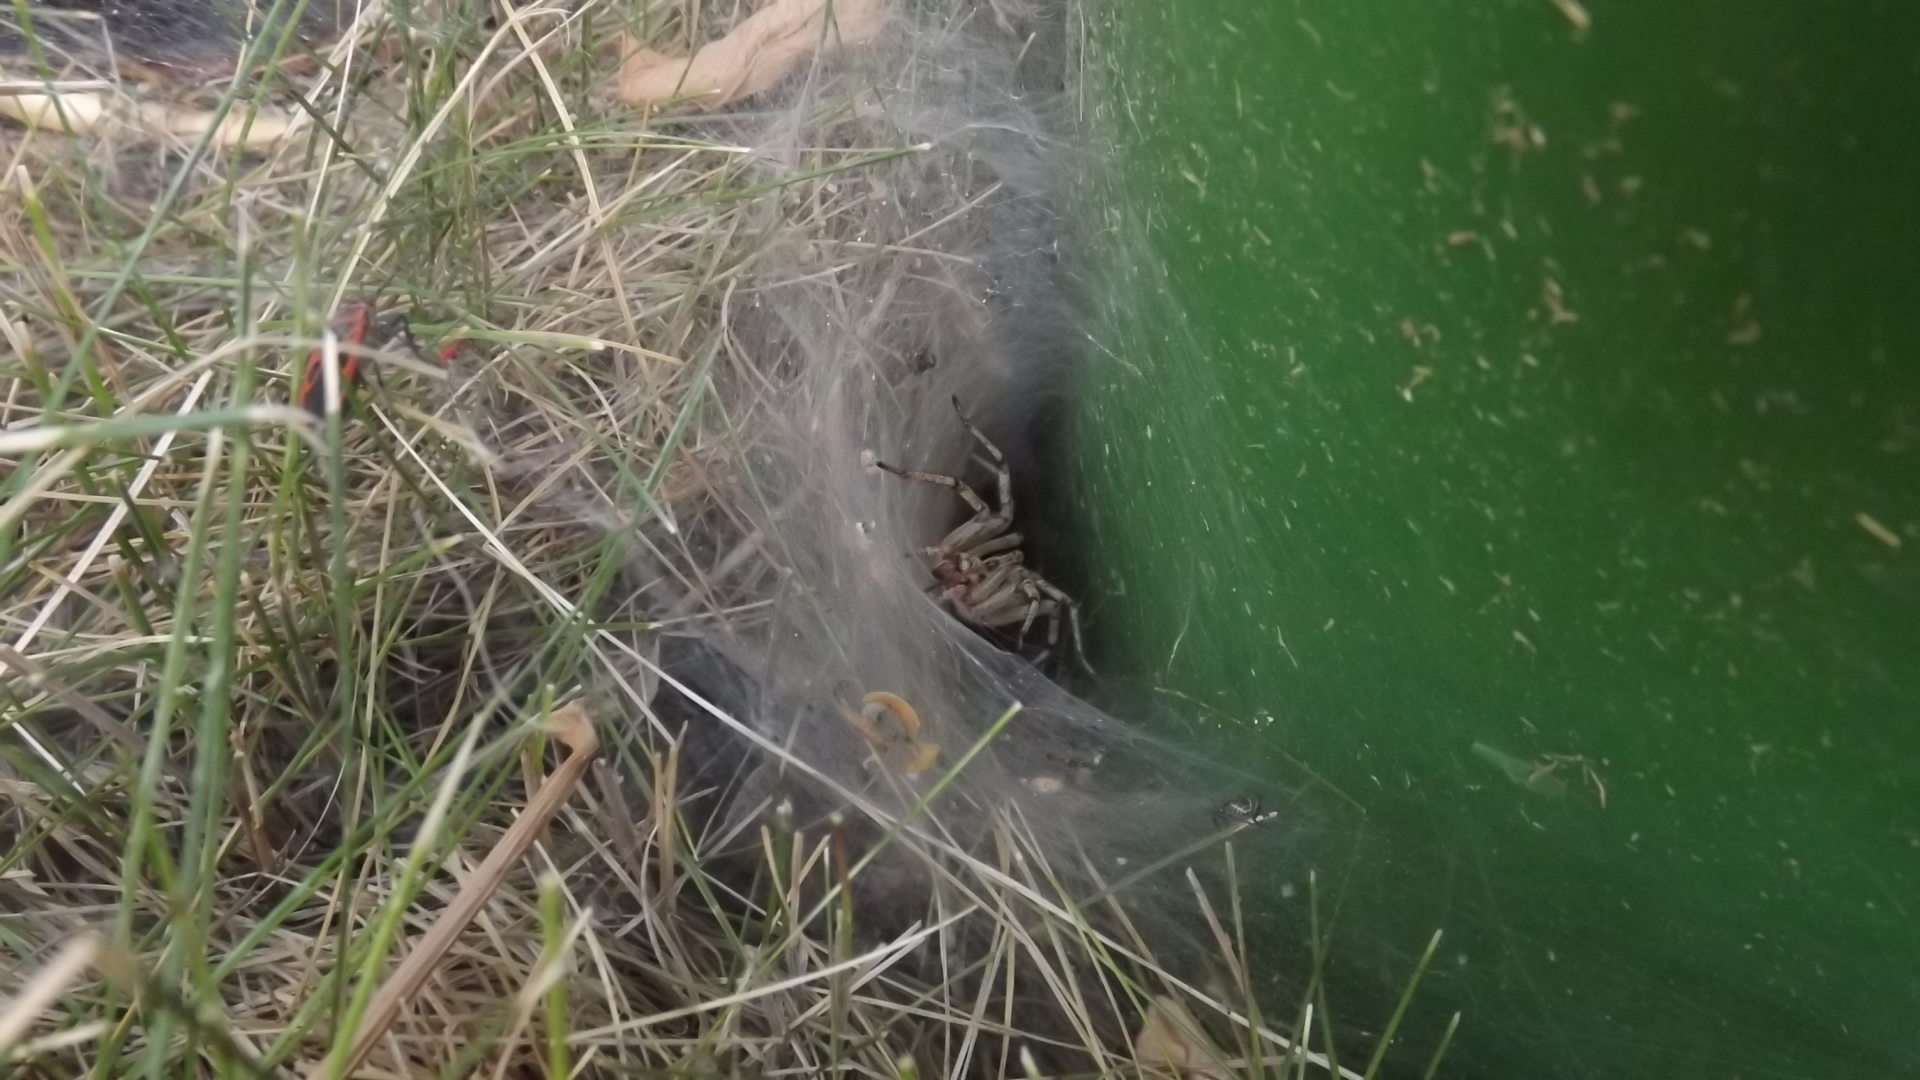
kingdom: Animalia
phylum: Arthropoda
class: Arachnida
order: Araneae
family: Agelenidae
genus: Agelena
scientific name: Agelena labyrinthica
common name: Labyrinth spider
